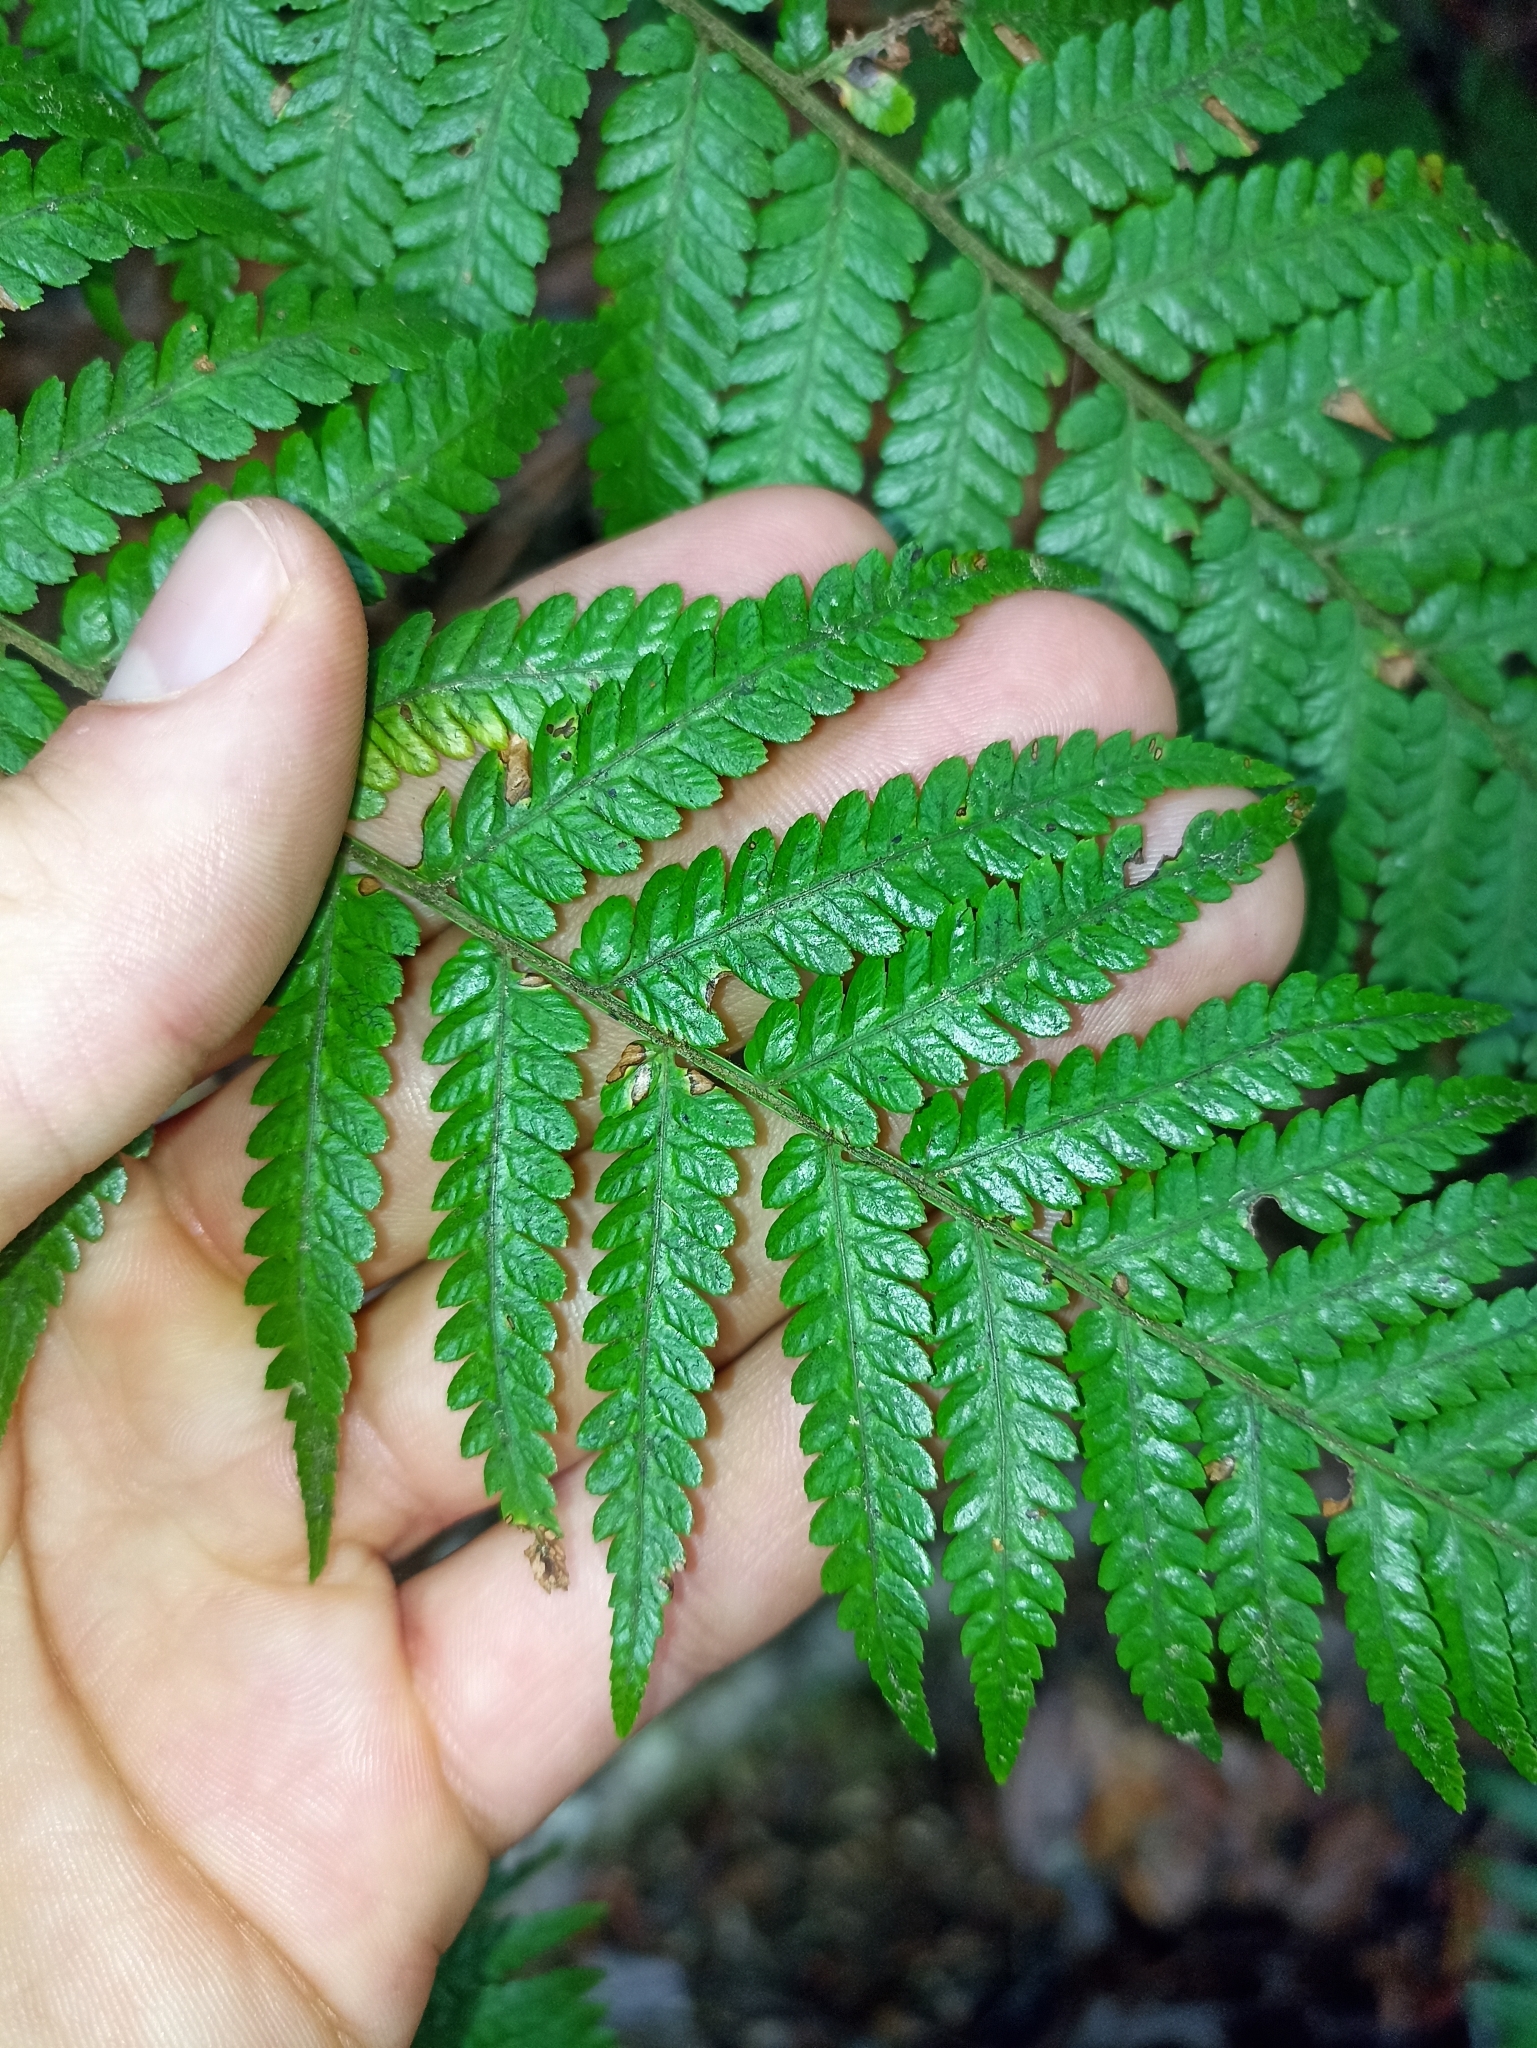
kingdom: Plantae
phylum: Tracheophyta
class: Polypodiopsida
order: Cyatheales
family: Dicksoniaceae
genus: Dicksonia
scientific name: Dicksonia lanata
